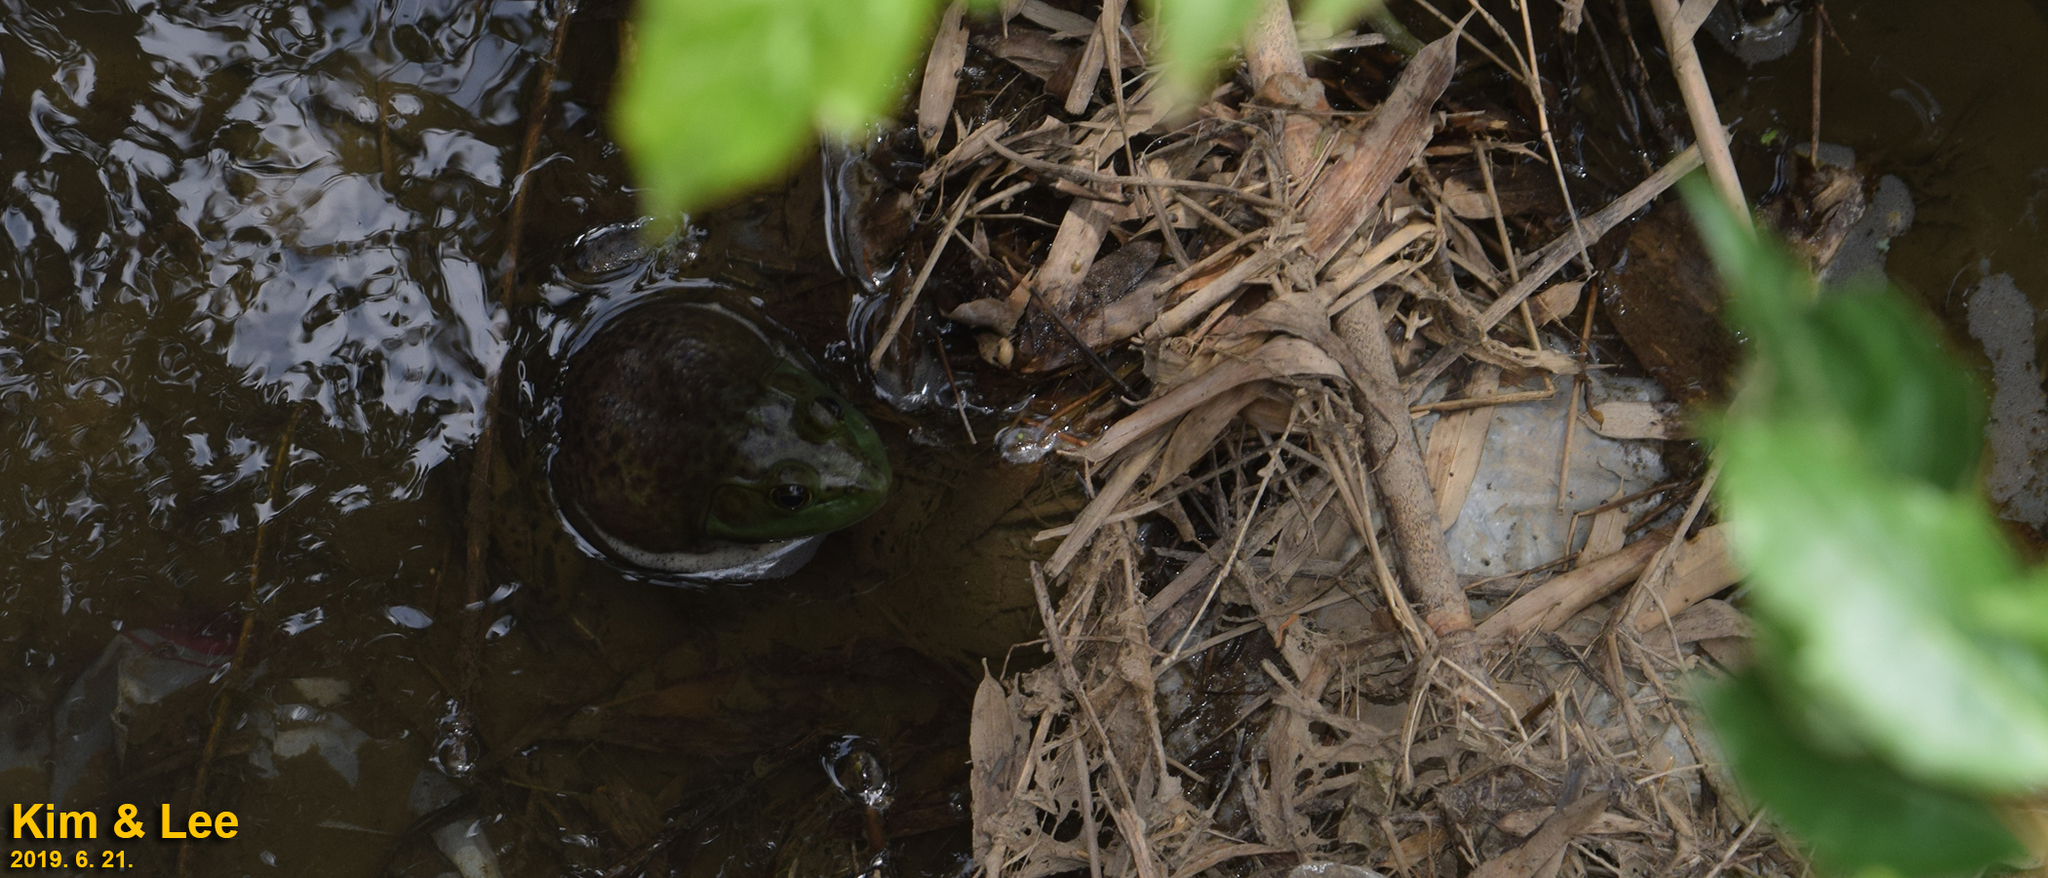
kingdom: Animalia
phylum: Chordata
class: Amphibia
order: Anura
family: Ranidae
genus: Lithobates
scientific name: Lithobates catesbeianus
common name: American bullfrog
